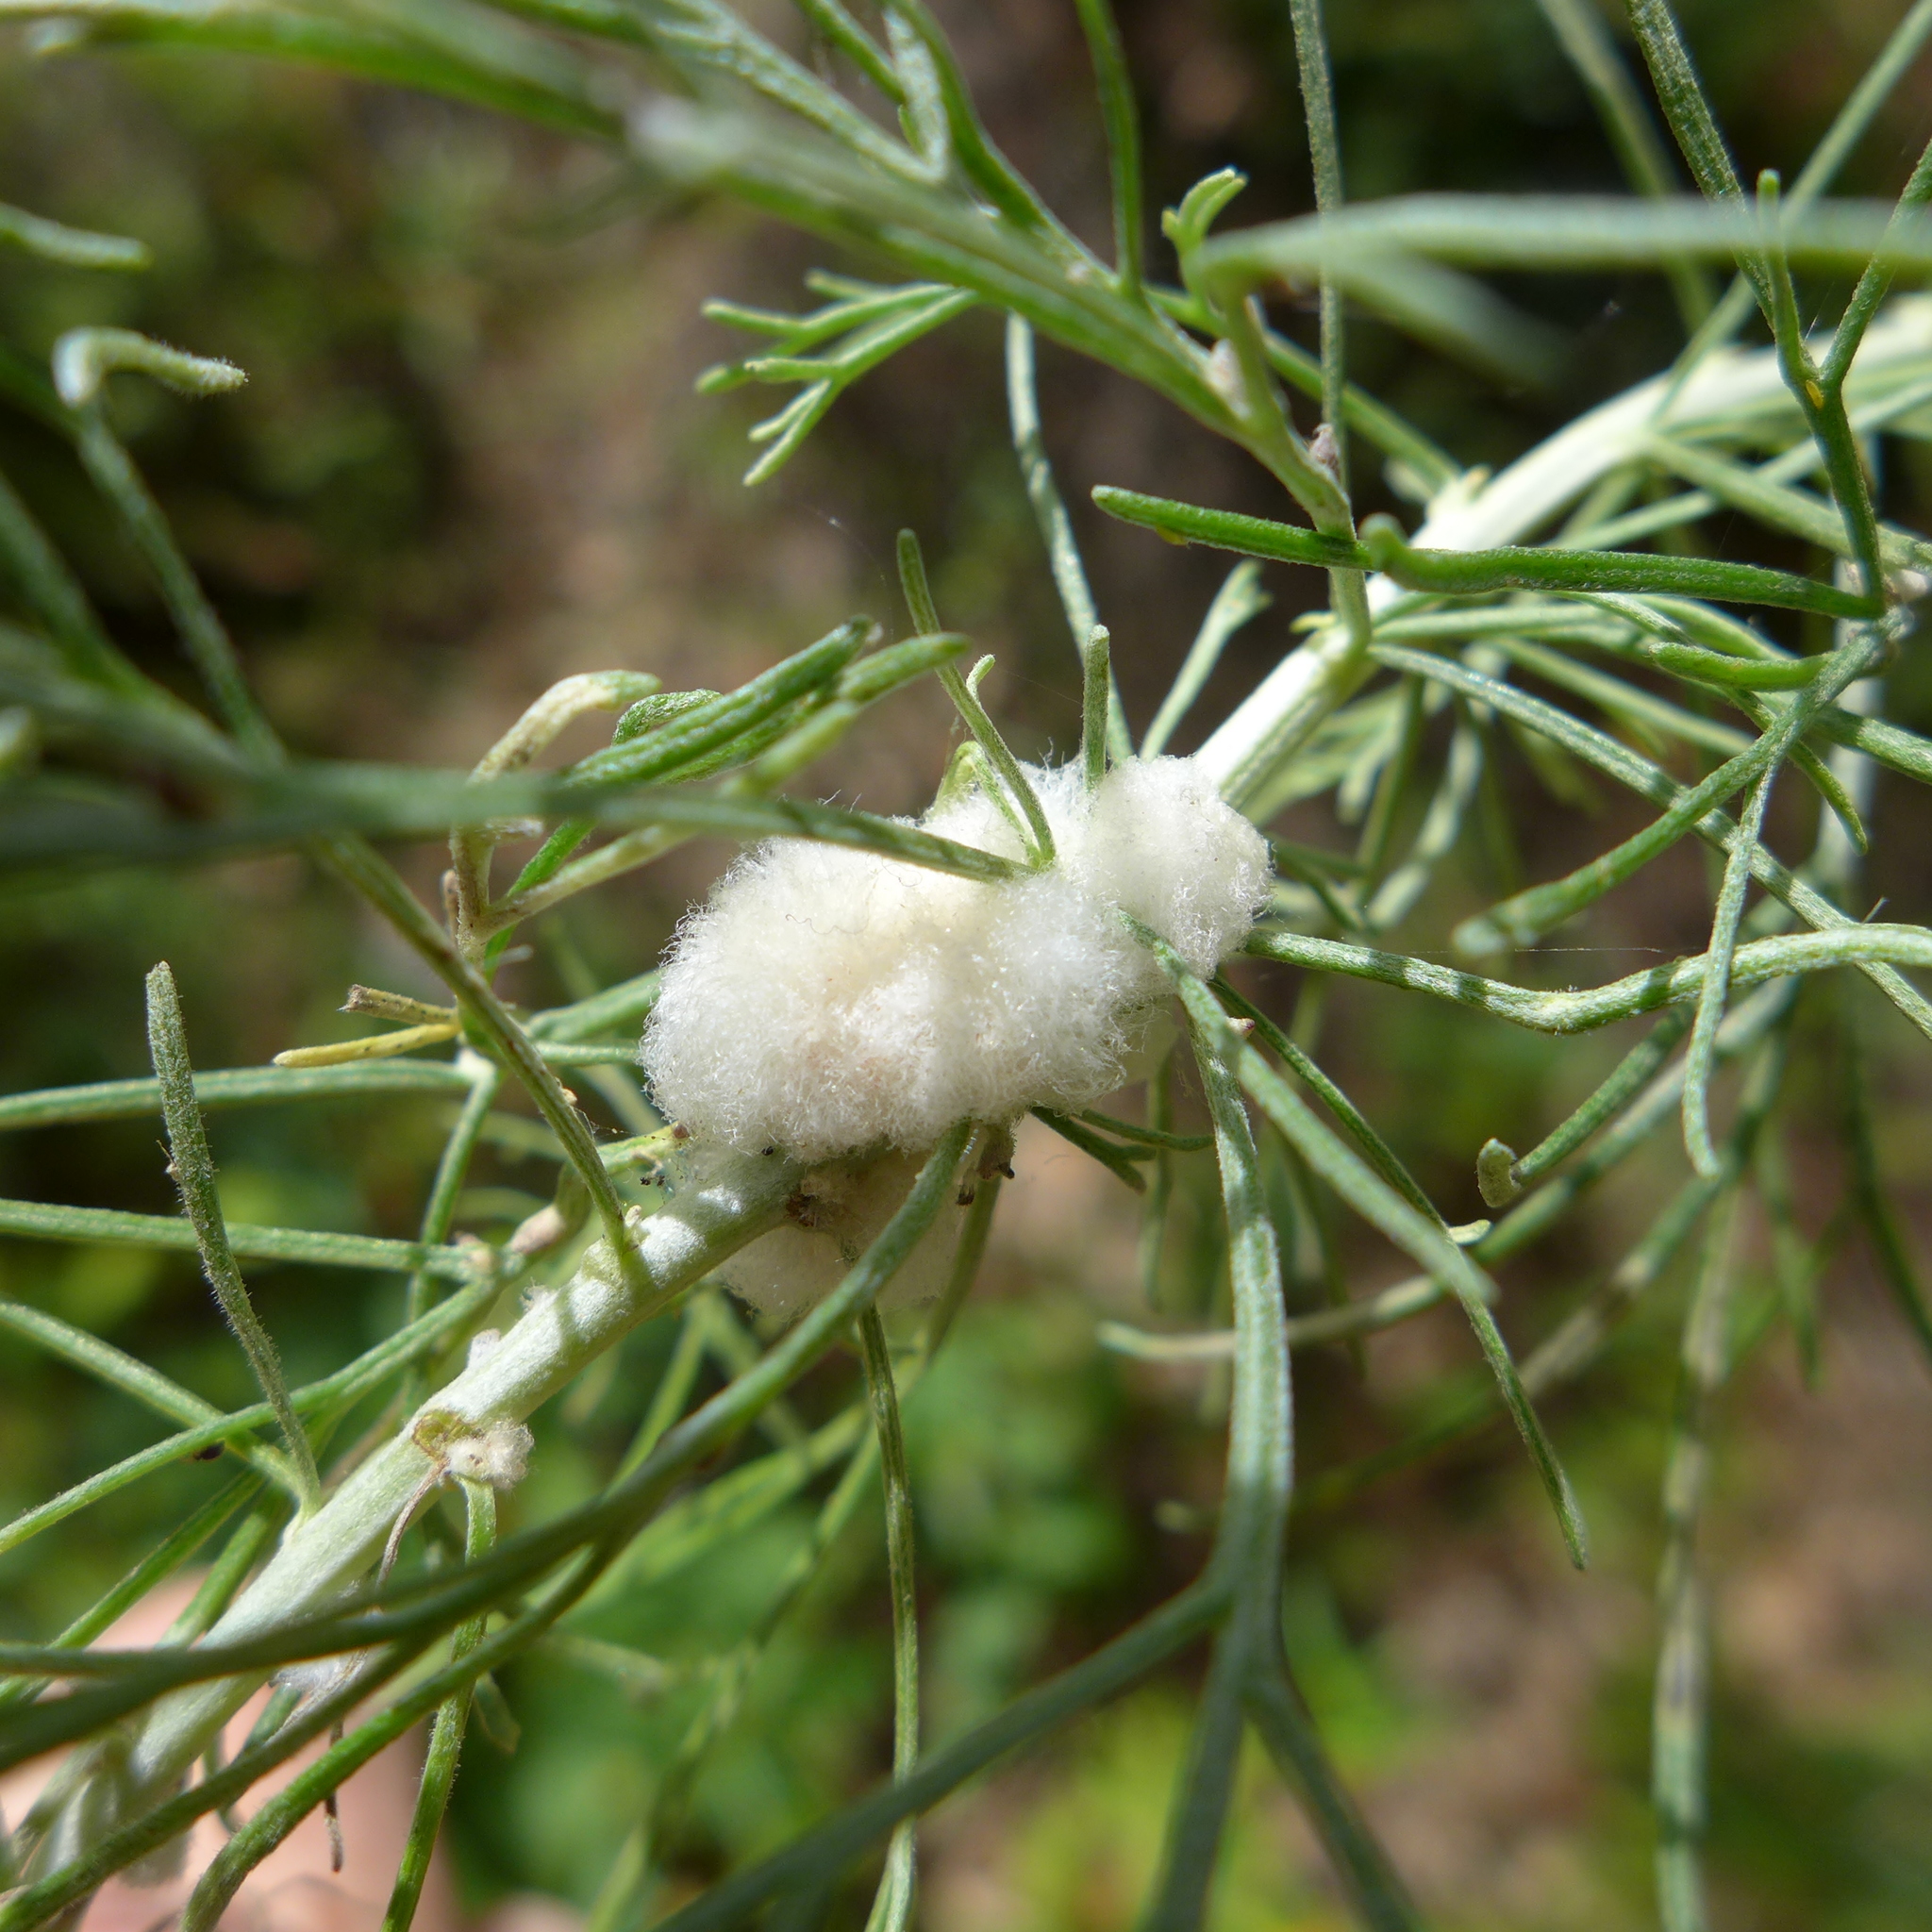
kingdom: Animalia
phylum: Arthropoda
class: Insecta
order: Diptera
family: Cecidomyiidae
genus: Rhopalomyia
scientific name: Rhopalomyia floccosa
